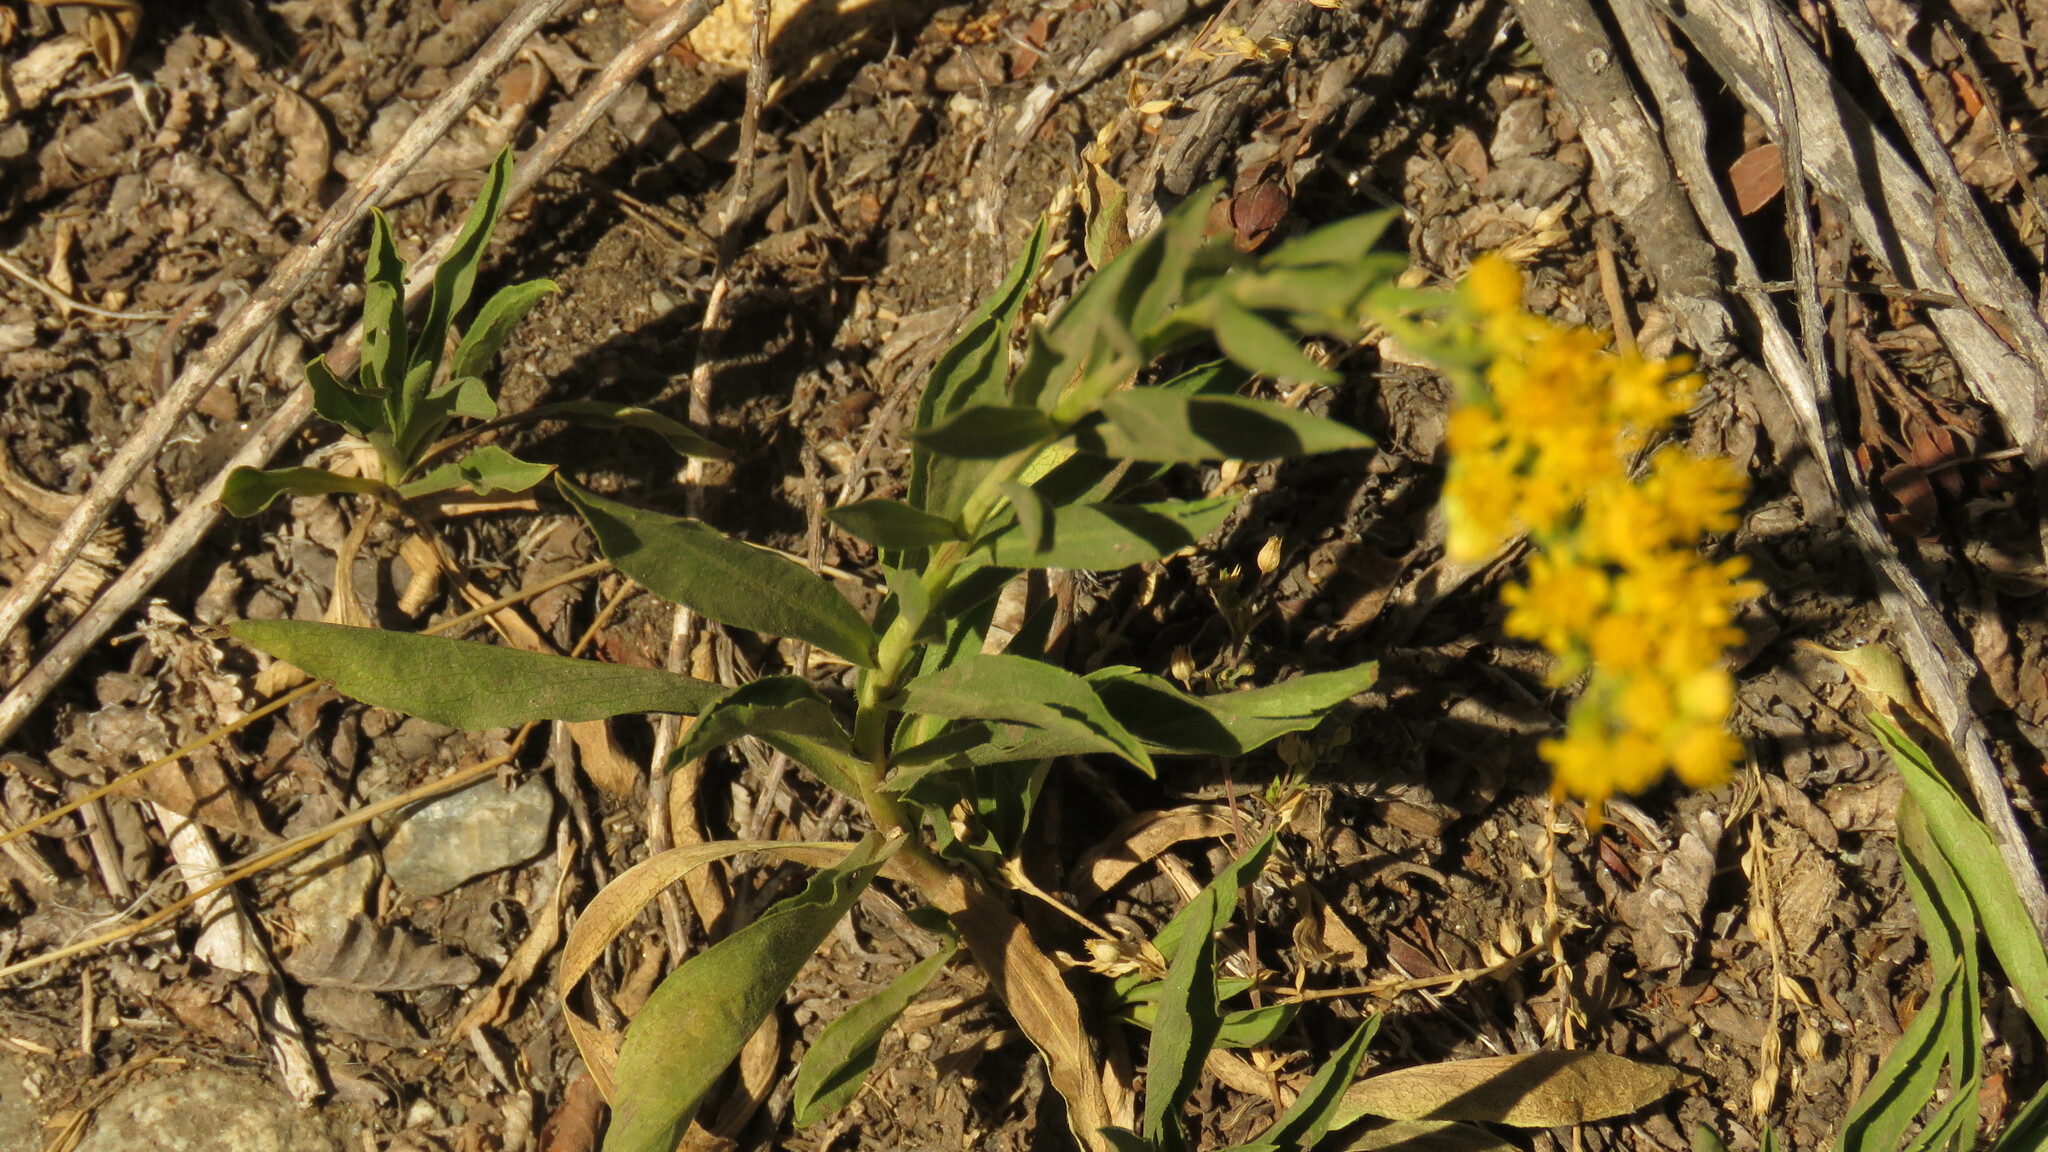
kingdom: Plantae
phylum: Tracheophyta
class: Magnoliopsida
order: Asterales
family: Asteraceae
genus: Solidago
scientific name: Solidago chilensis
